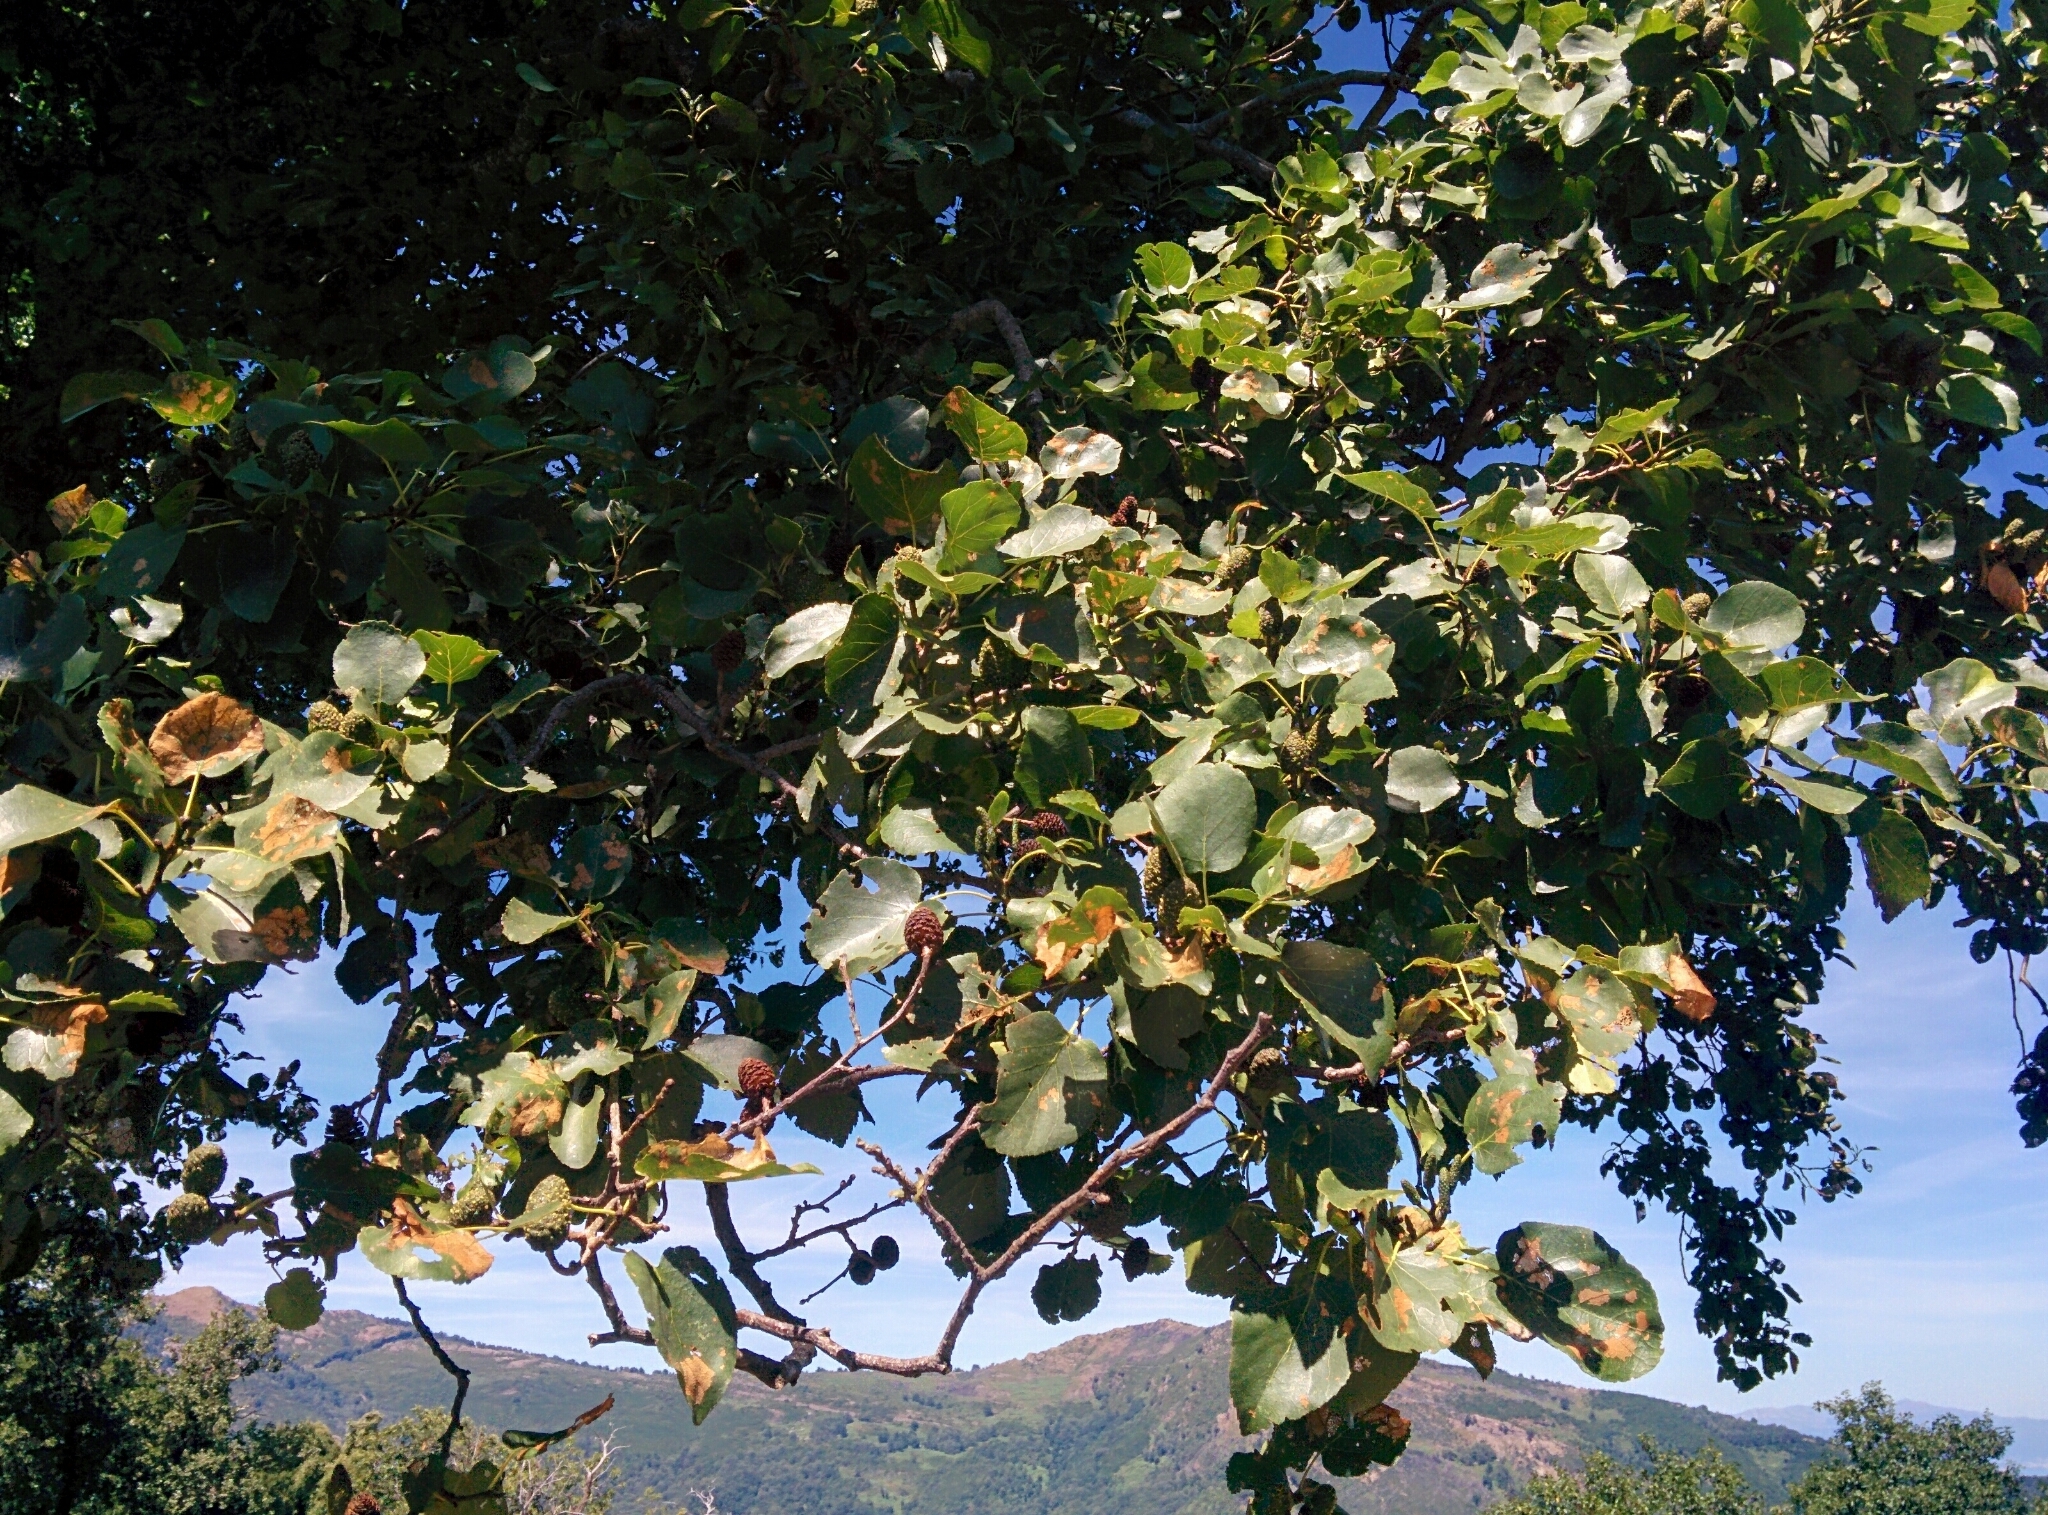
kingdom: Plantae
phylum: Tracheophyta
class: Magnoliopsida
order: Fagales
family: Betulaceae
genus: Alnus
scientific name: Alnus cordata
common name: Italian alder
